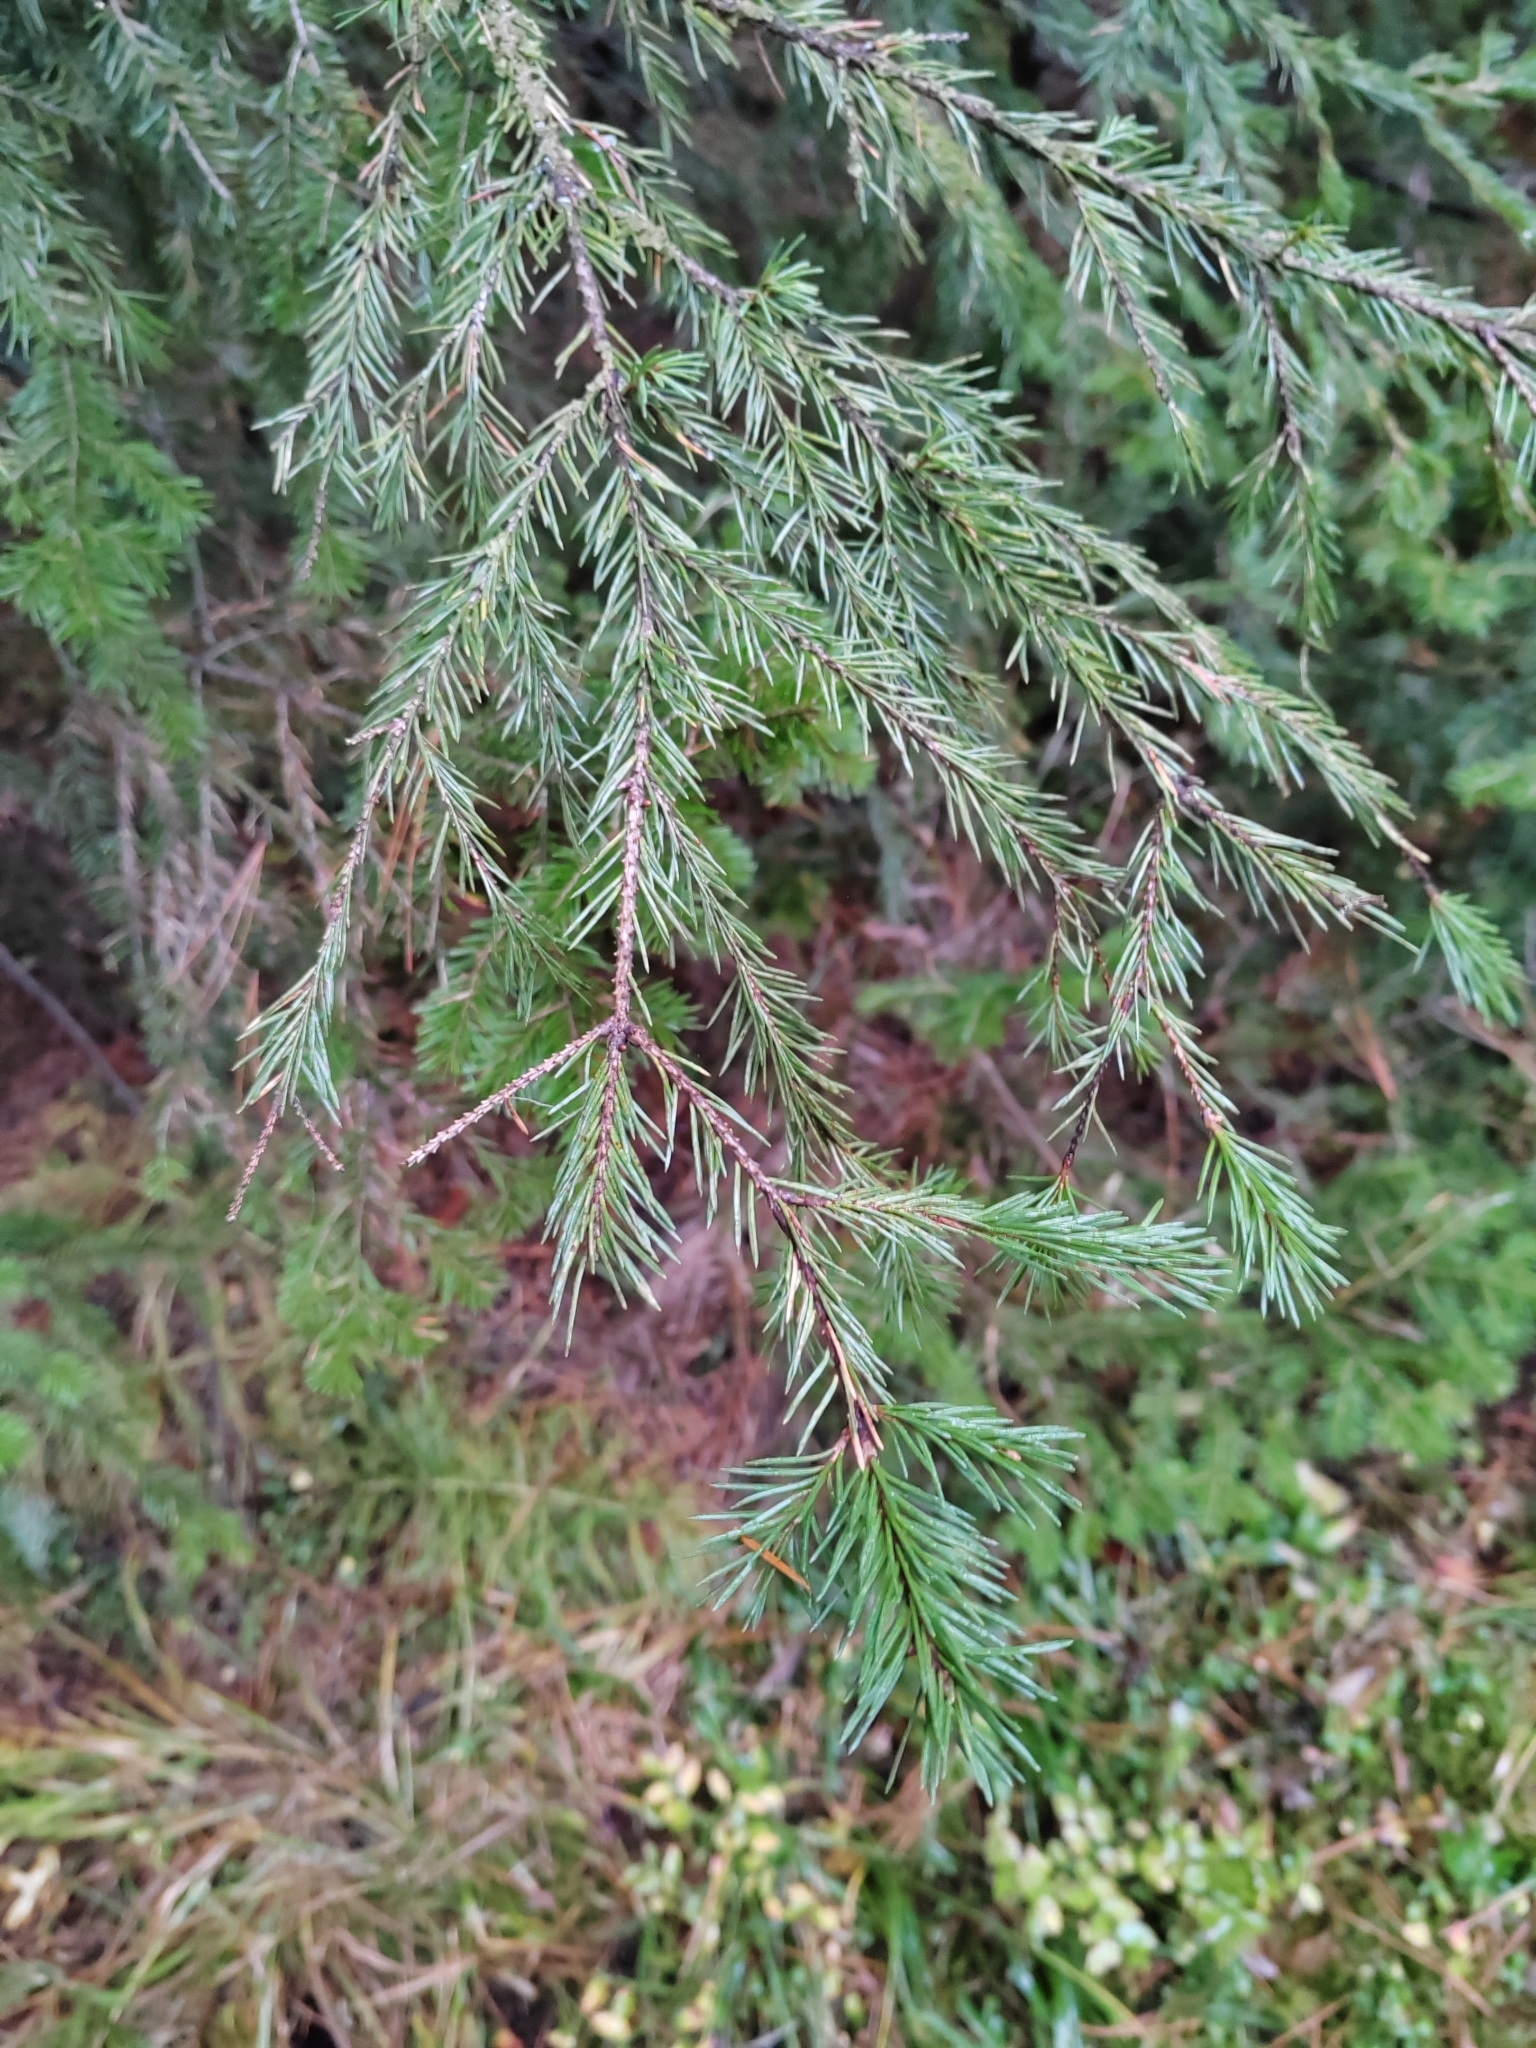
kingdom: Plantae
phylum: Tracheophyta
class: Pinopsida
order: Pinales
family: Pinaceae
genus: Picea
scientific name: Picea obovata
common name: Siberian spruce
